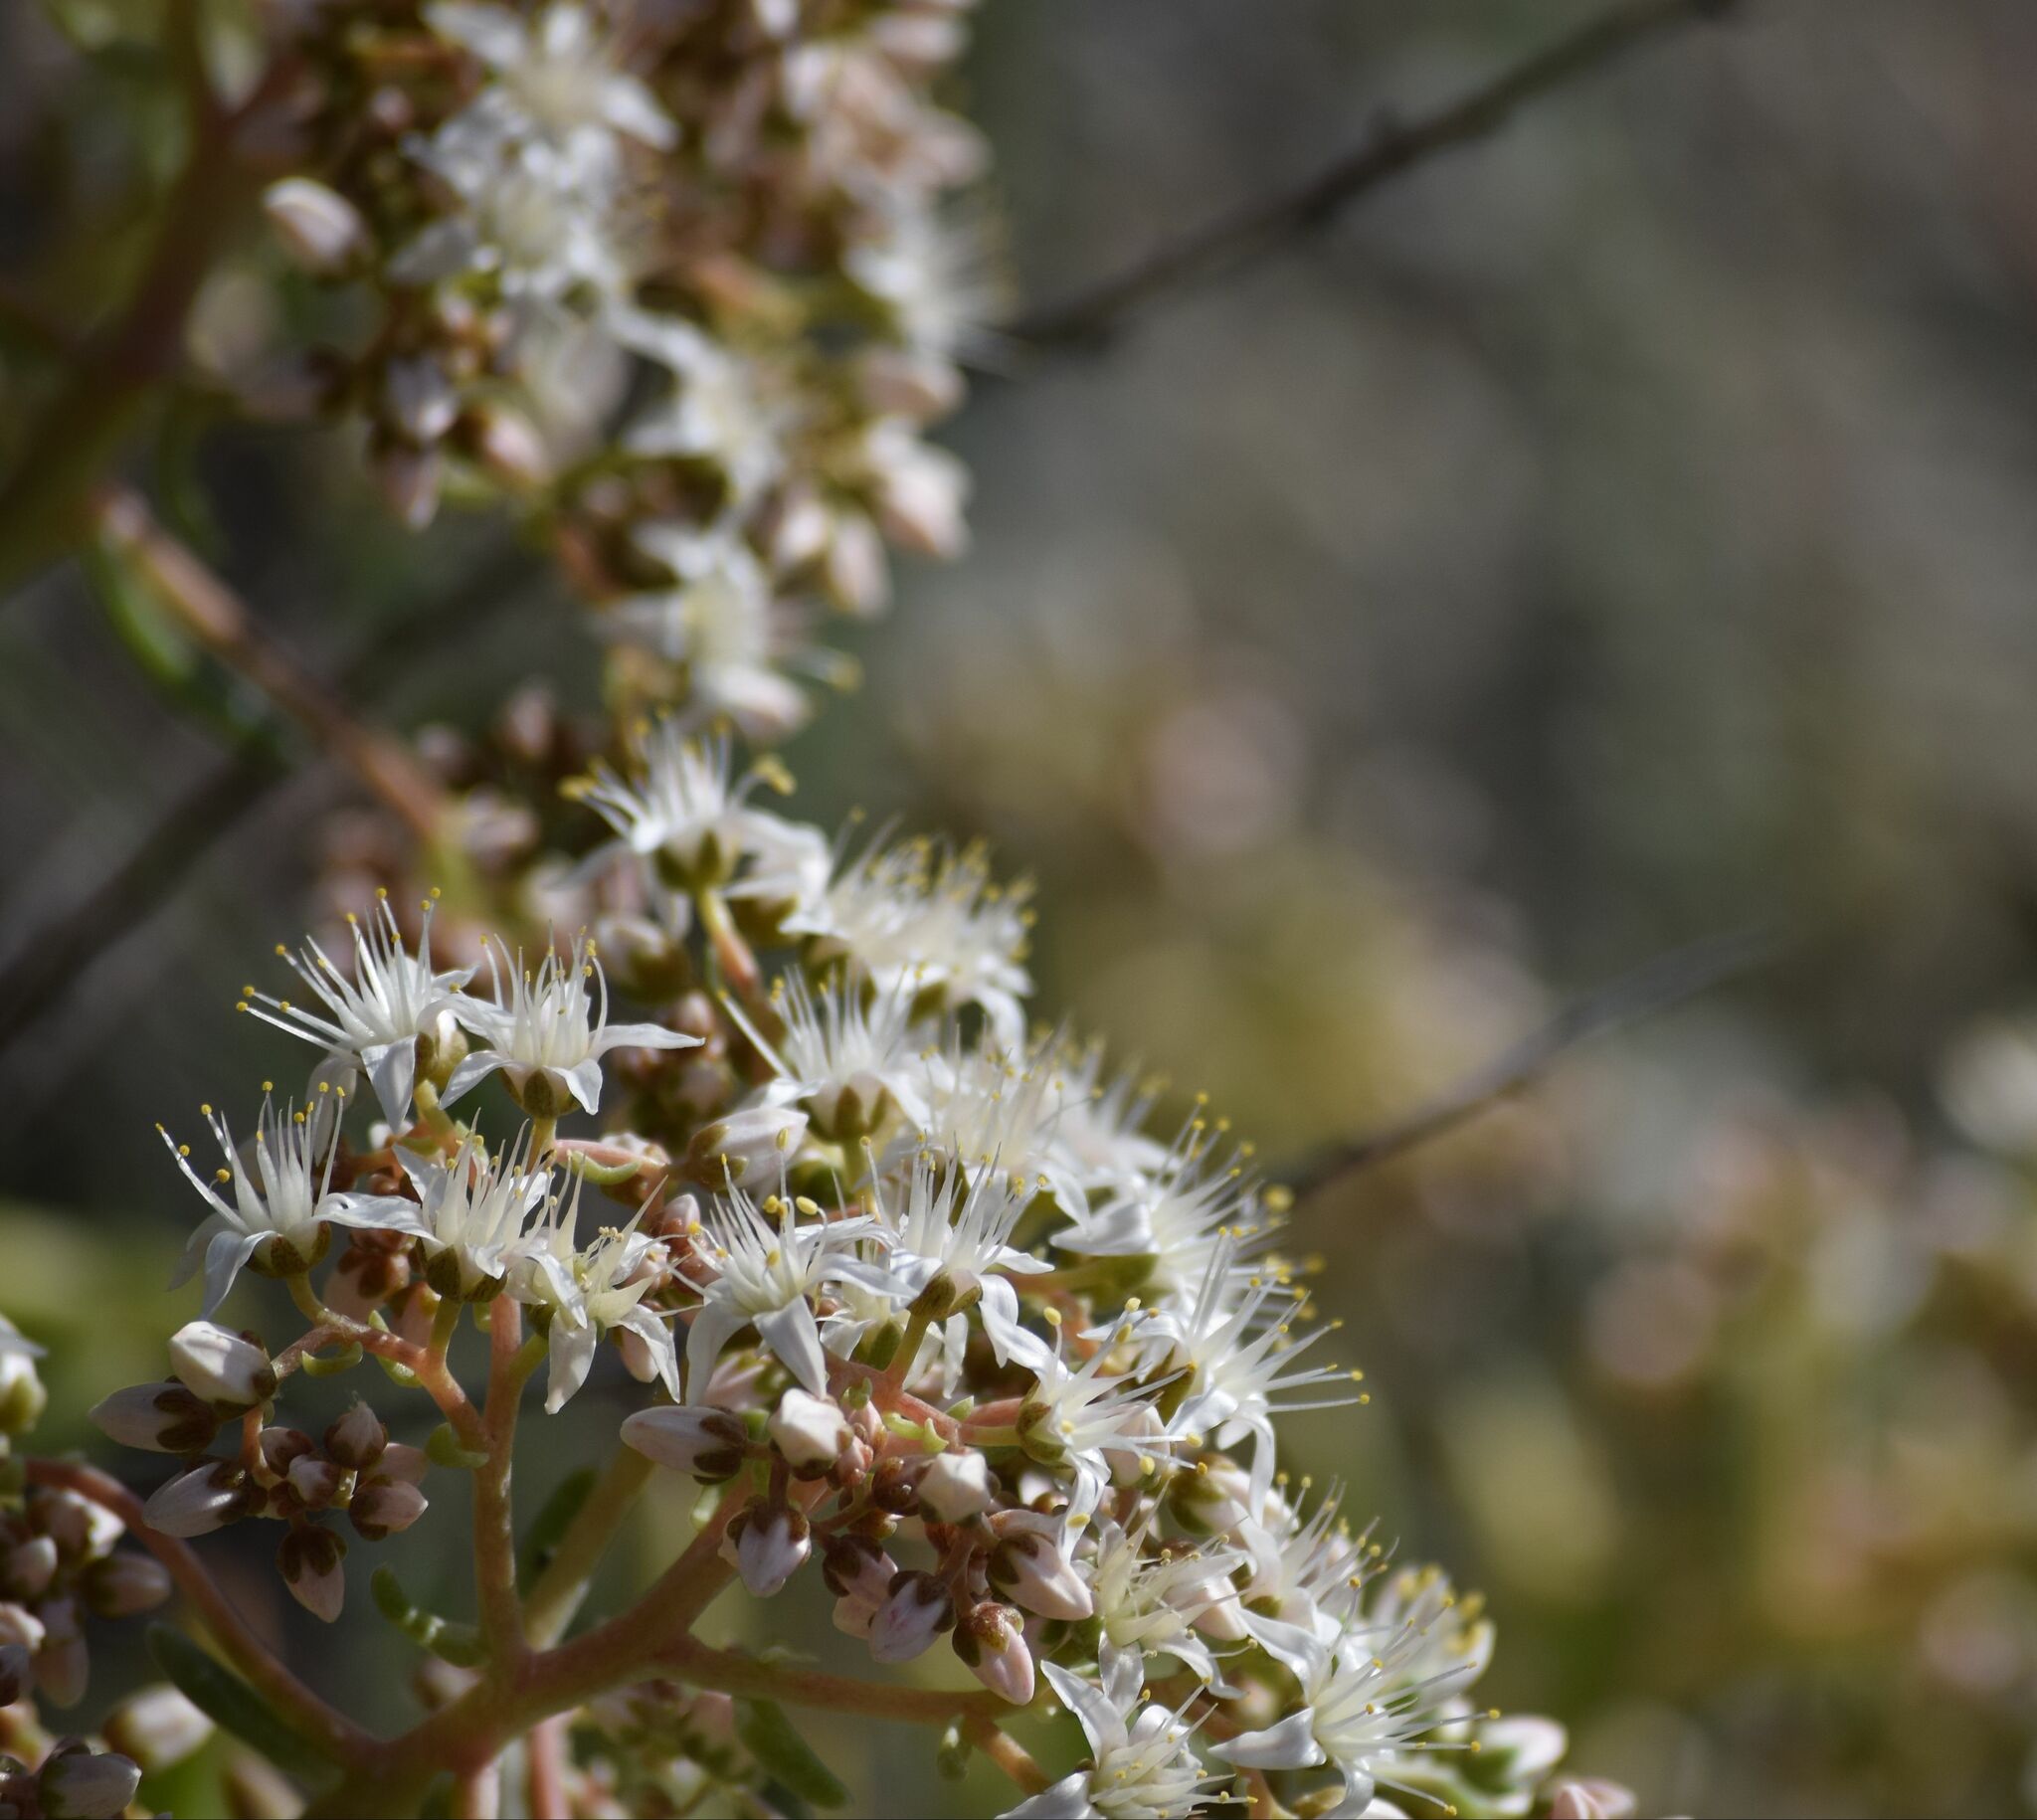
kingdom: Plantae
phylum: Tracheophyta
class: Magnoliopsida
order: Saxifragales
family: Crassulaceae
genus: Dudleya
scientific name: Dudleya densiflora
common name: San gabriel mountains dudleya
